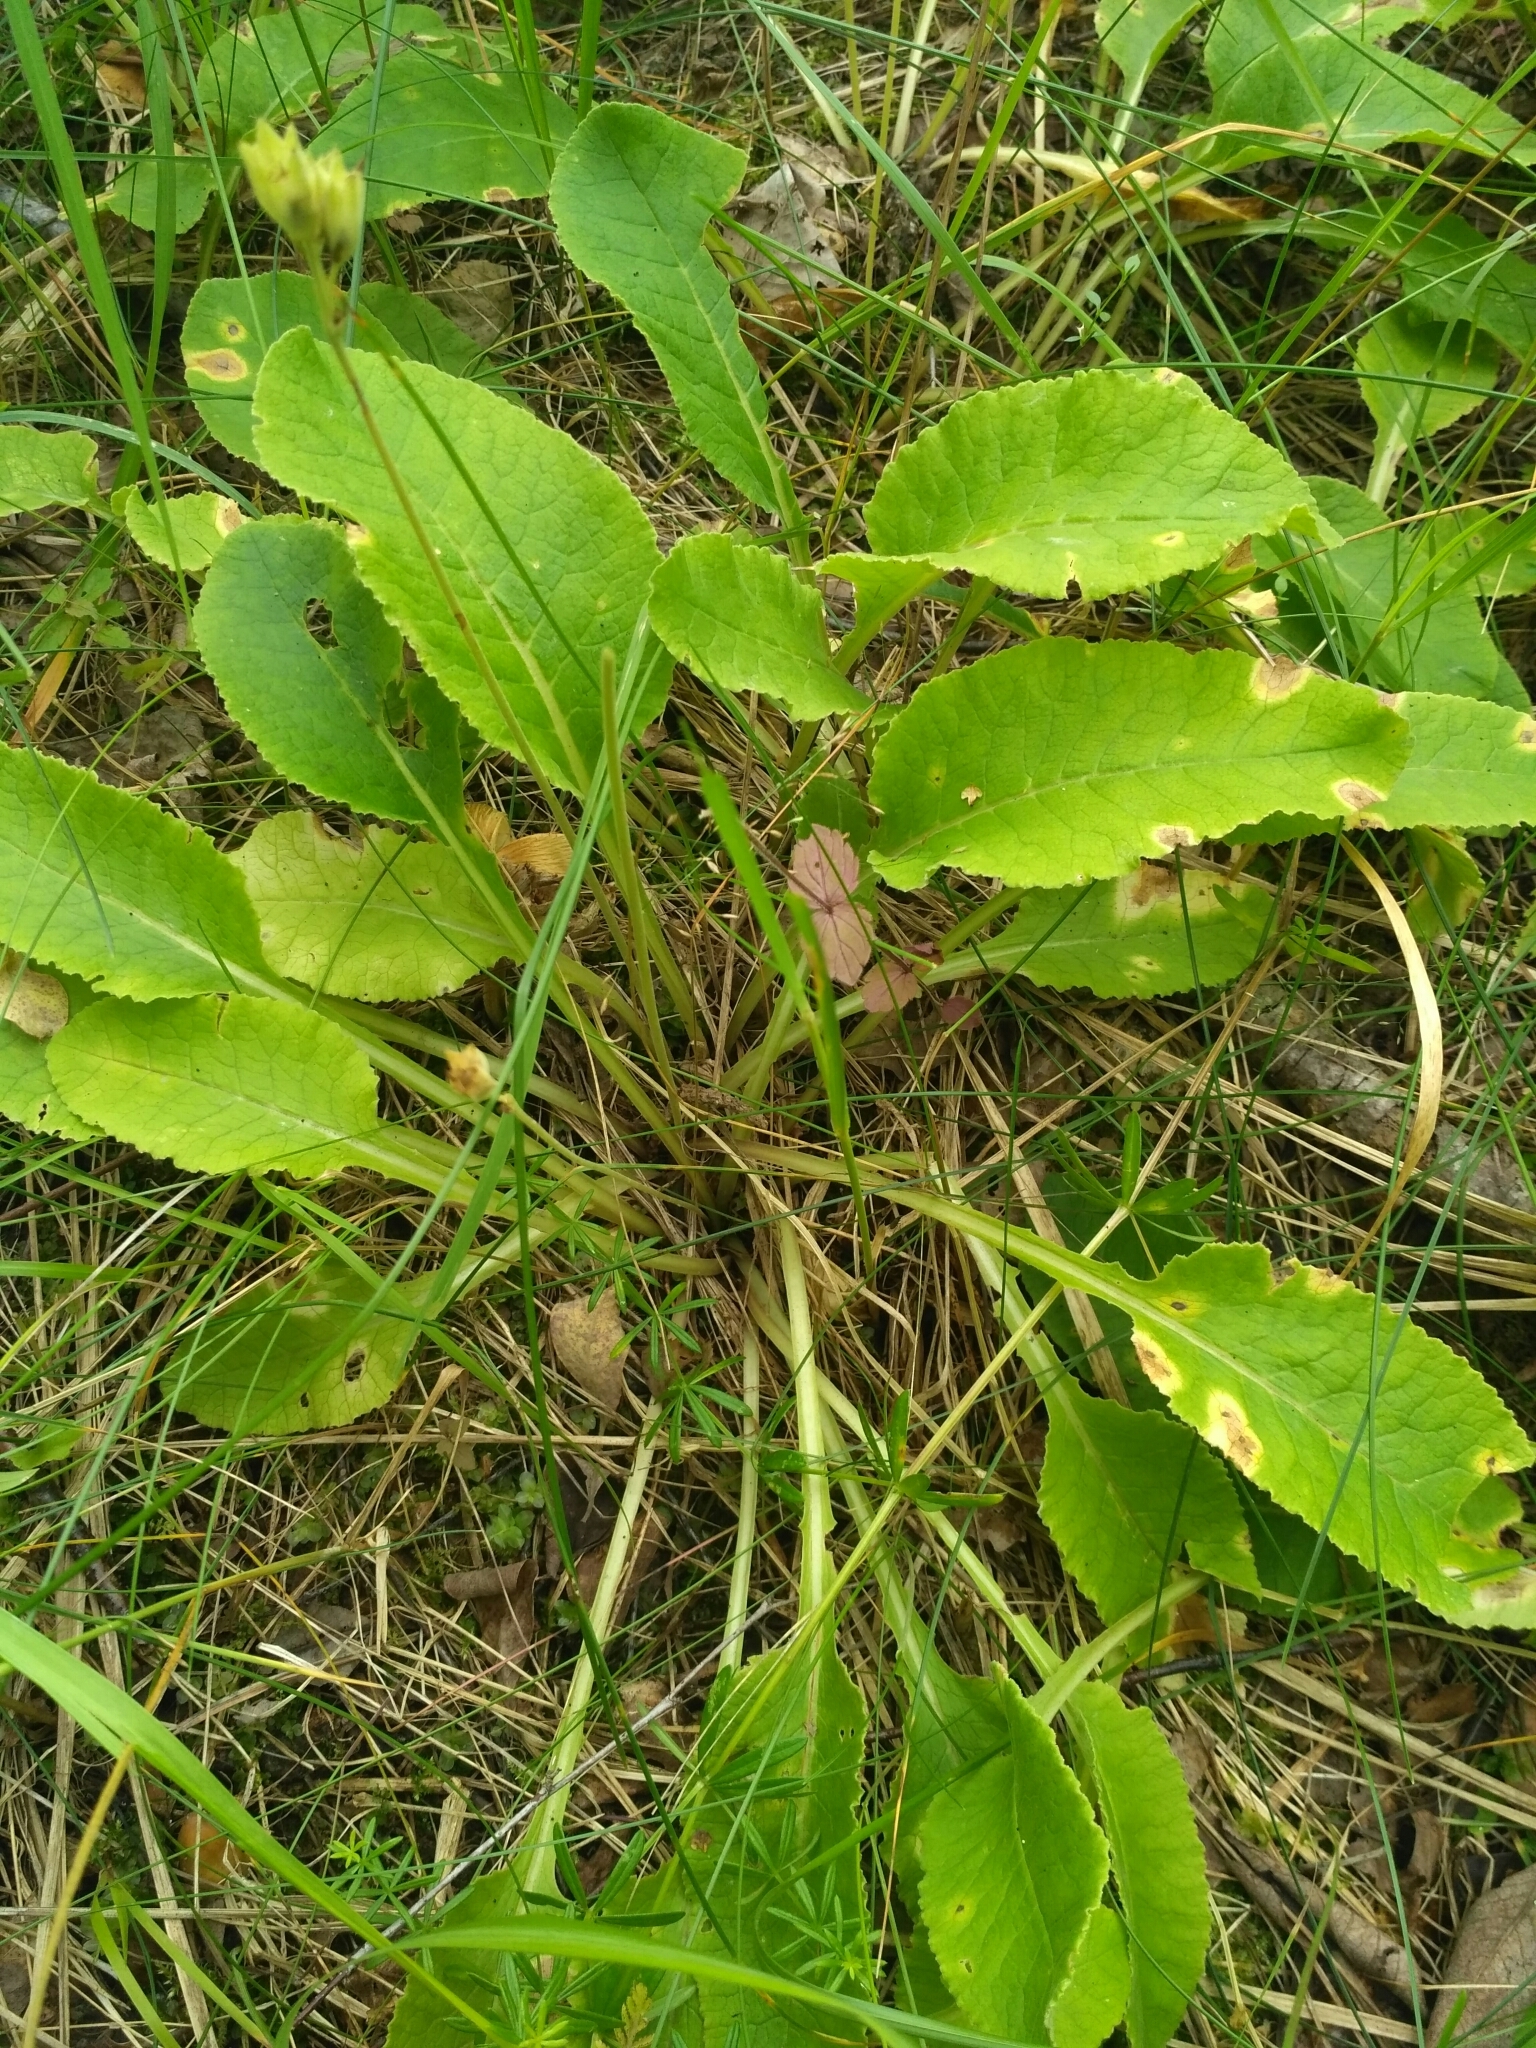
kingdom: Plantae
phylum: Tracheophyta
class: Magnoliopsida
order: Ericales
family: Primulaceae
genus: Primula
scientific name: Primula veris
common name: Cowslip
